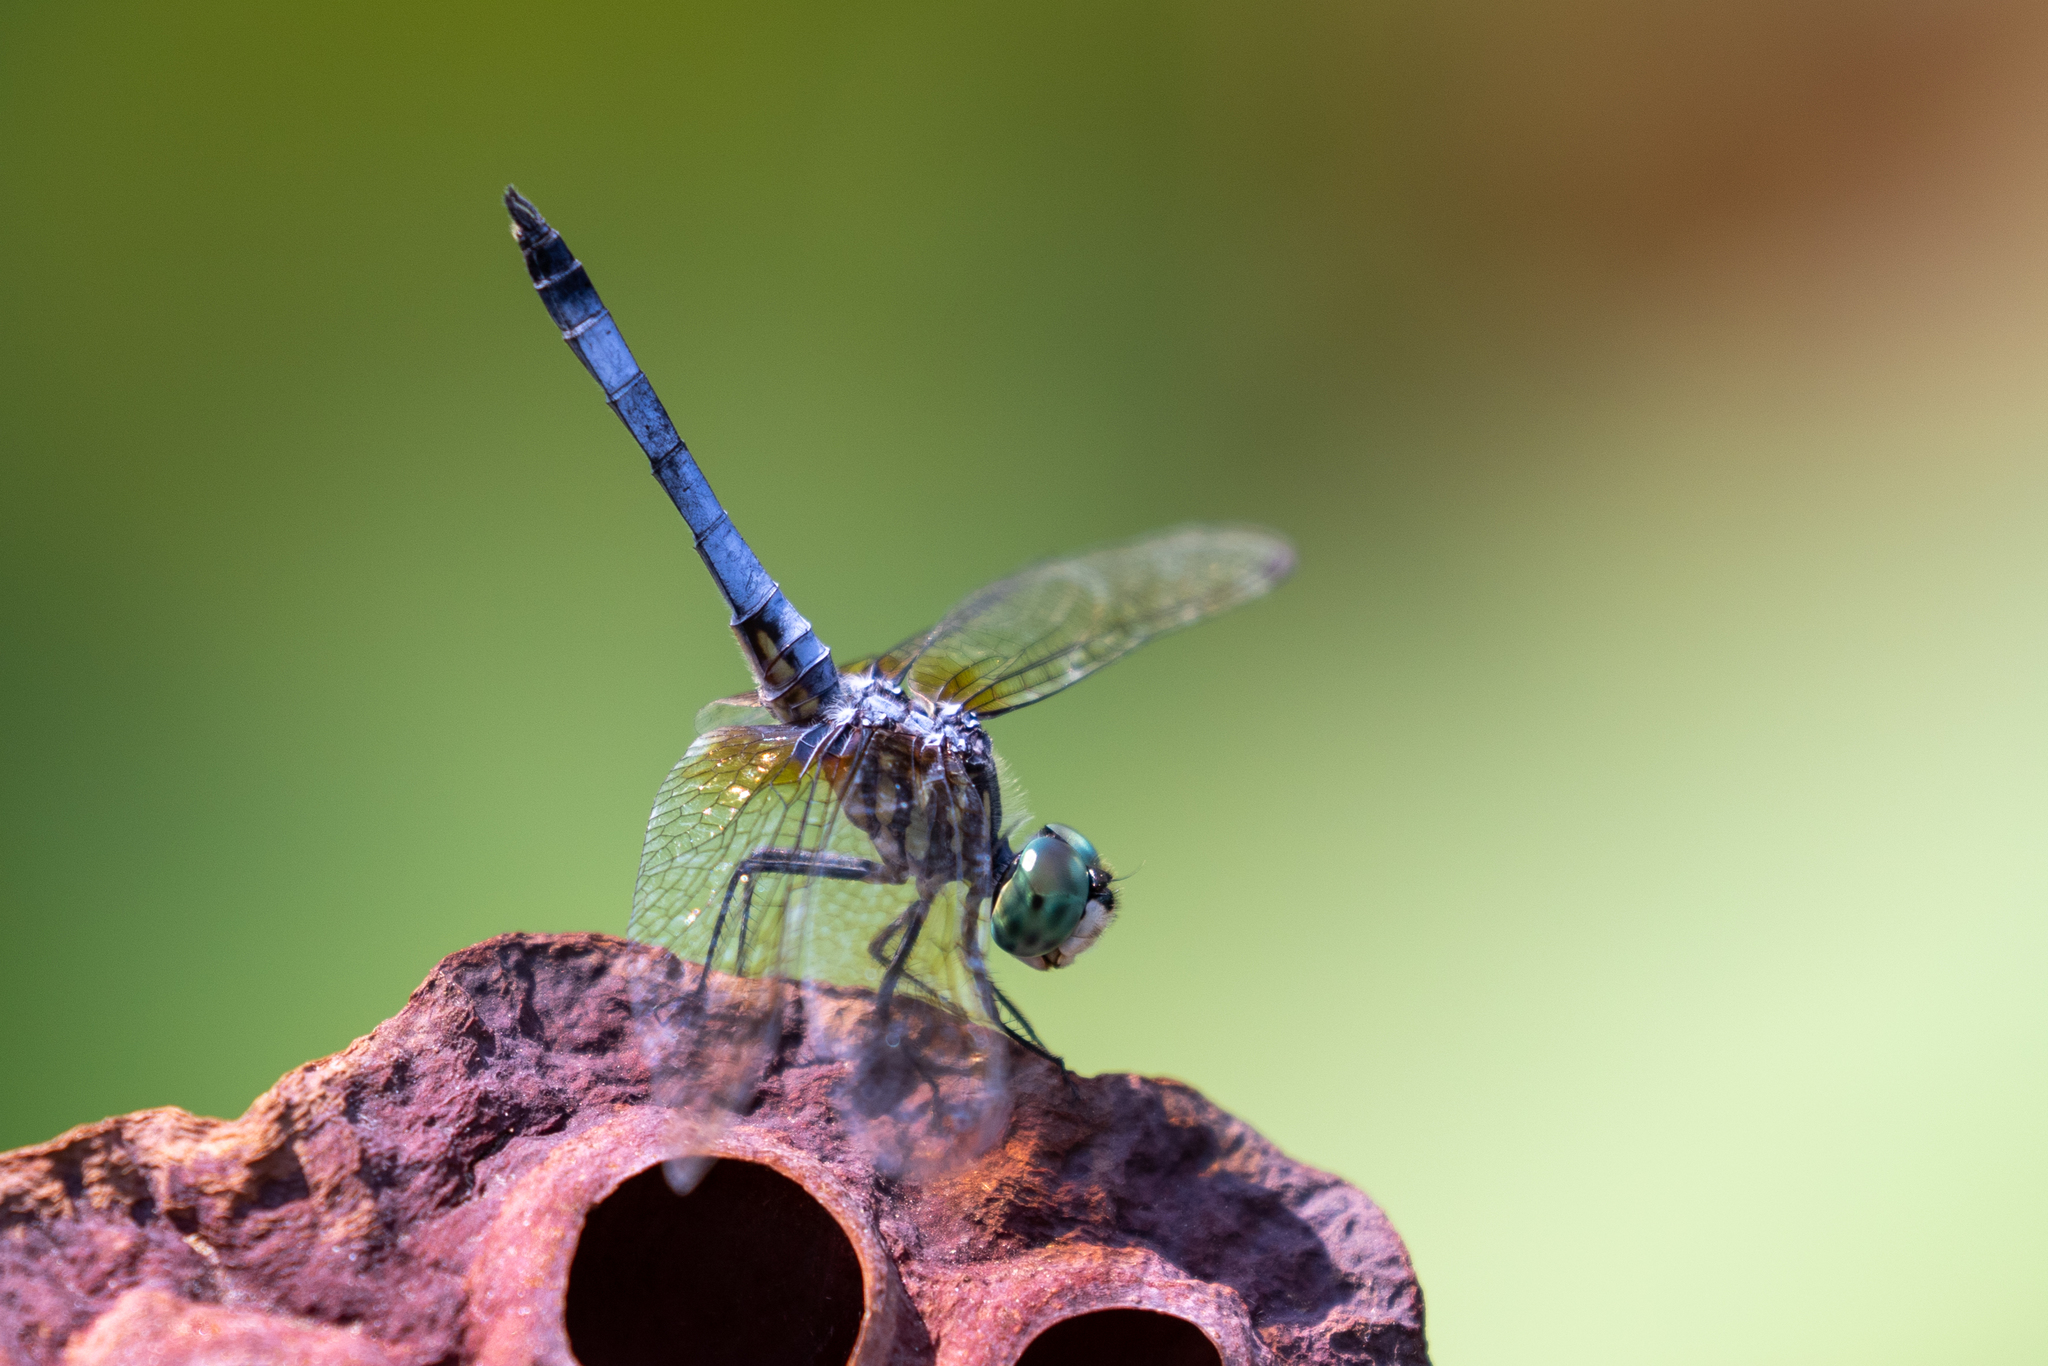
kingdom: Animalia
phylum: Arthropoda
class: Insecta
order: Odonata
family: Libellulidae
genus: Pachydiplax
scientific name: Pachydiplax longipennis
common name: Blue dasher
